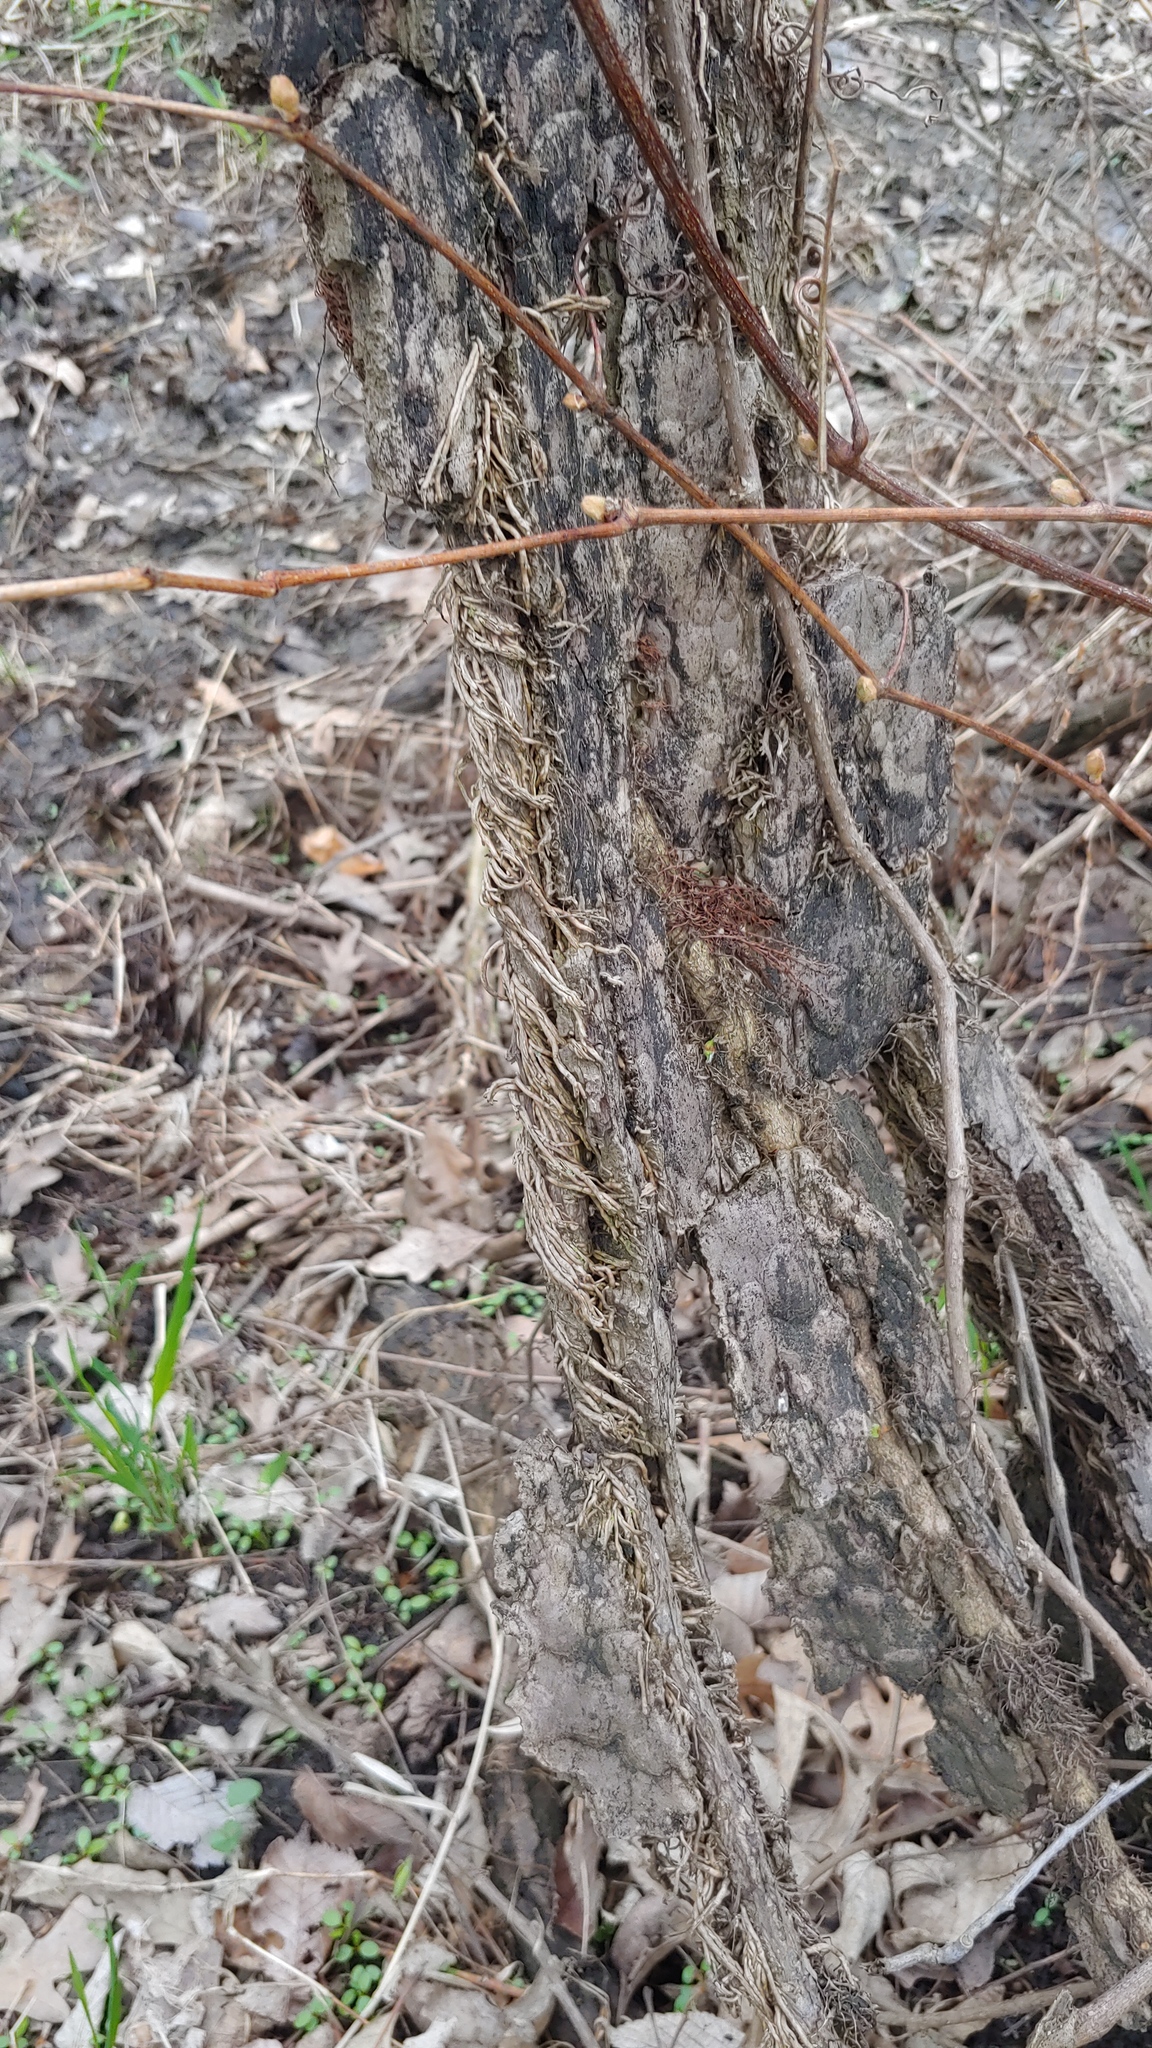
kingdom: Plantae
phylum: Tracheophyta
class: Magnoliopsida
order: Sapindales
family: Anacardiaceae
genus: Toxicodendron
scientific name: Toxicodendron radicans
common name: Poison ivy
